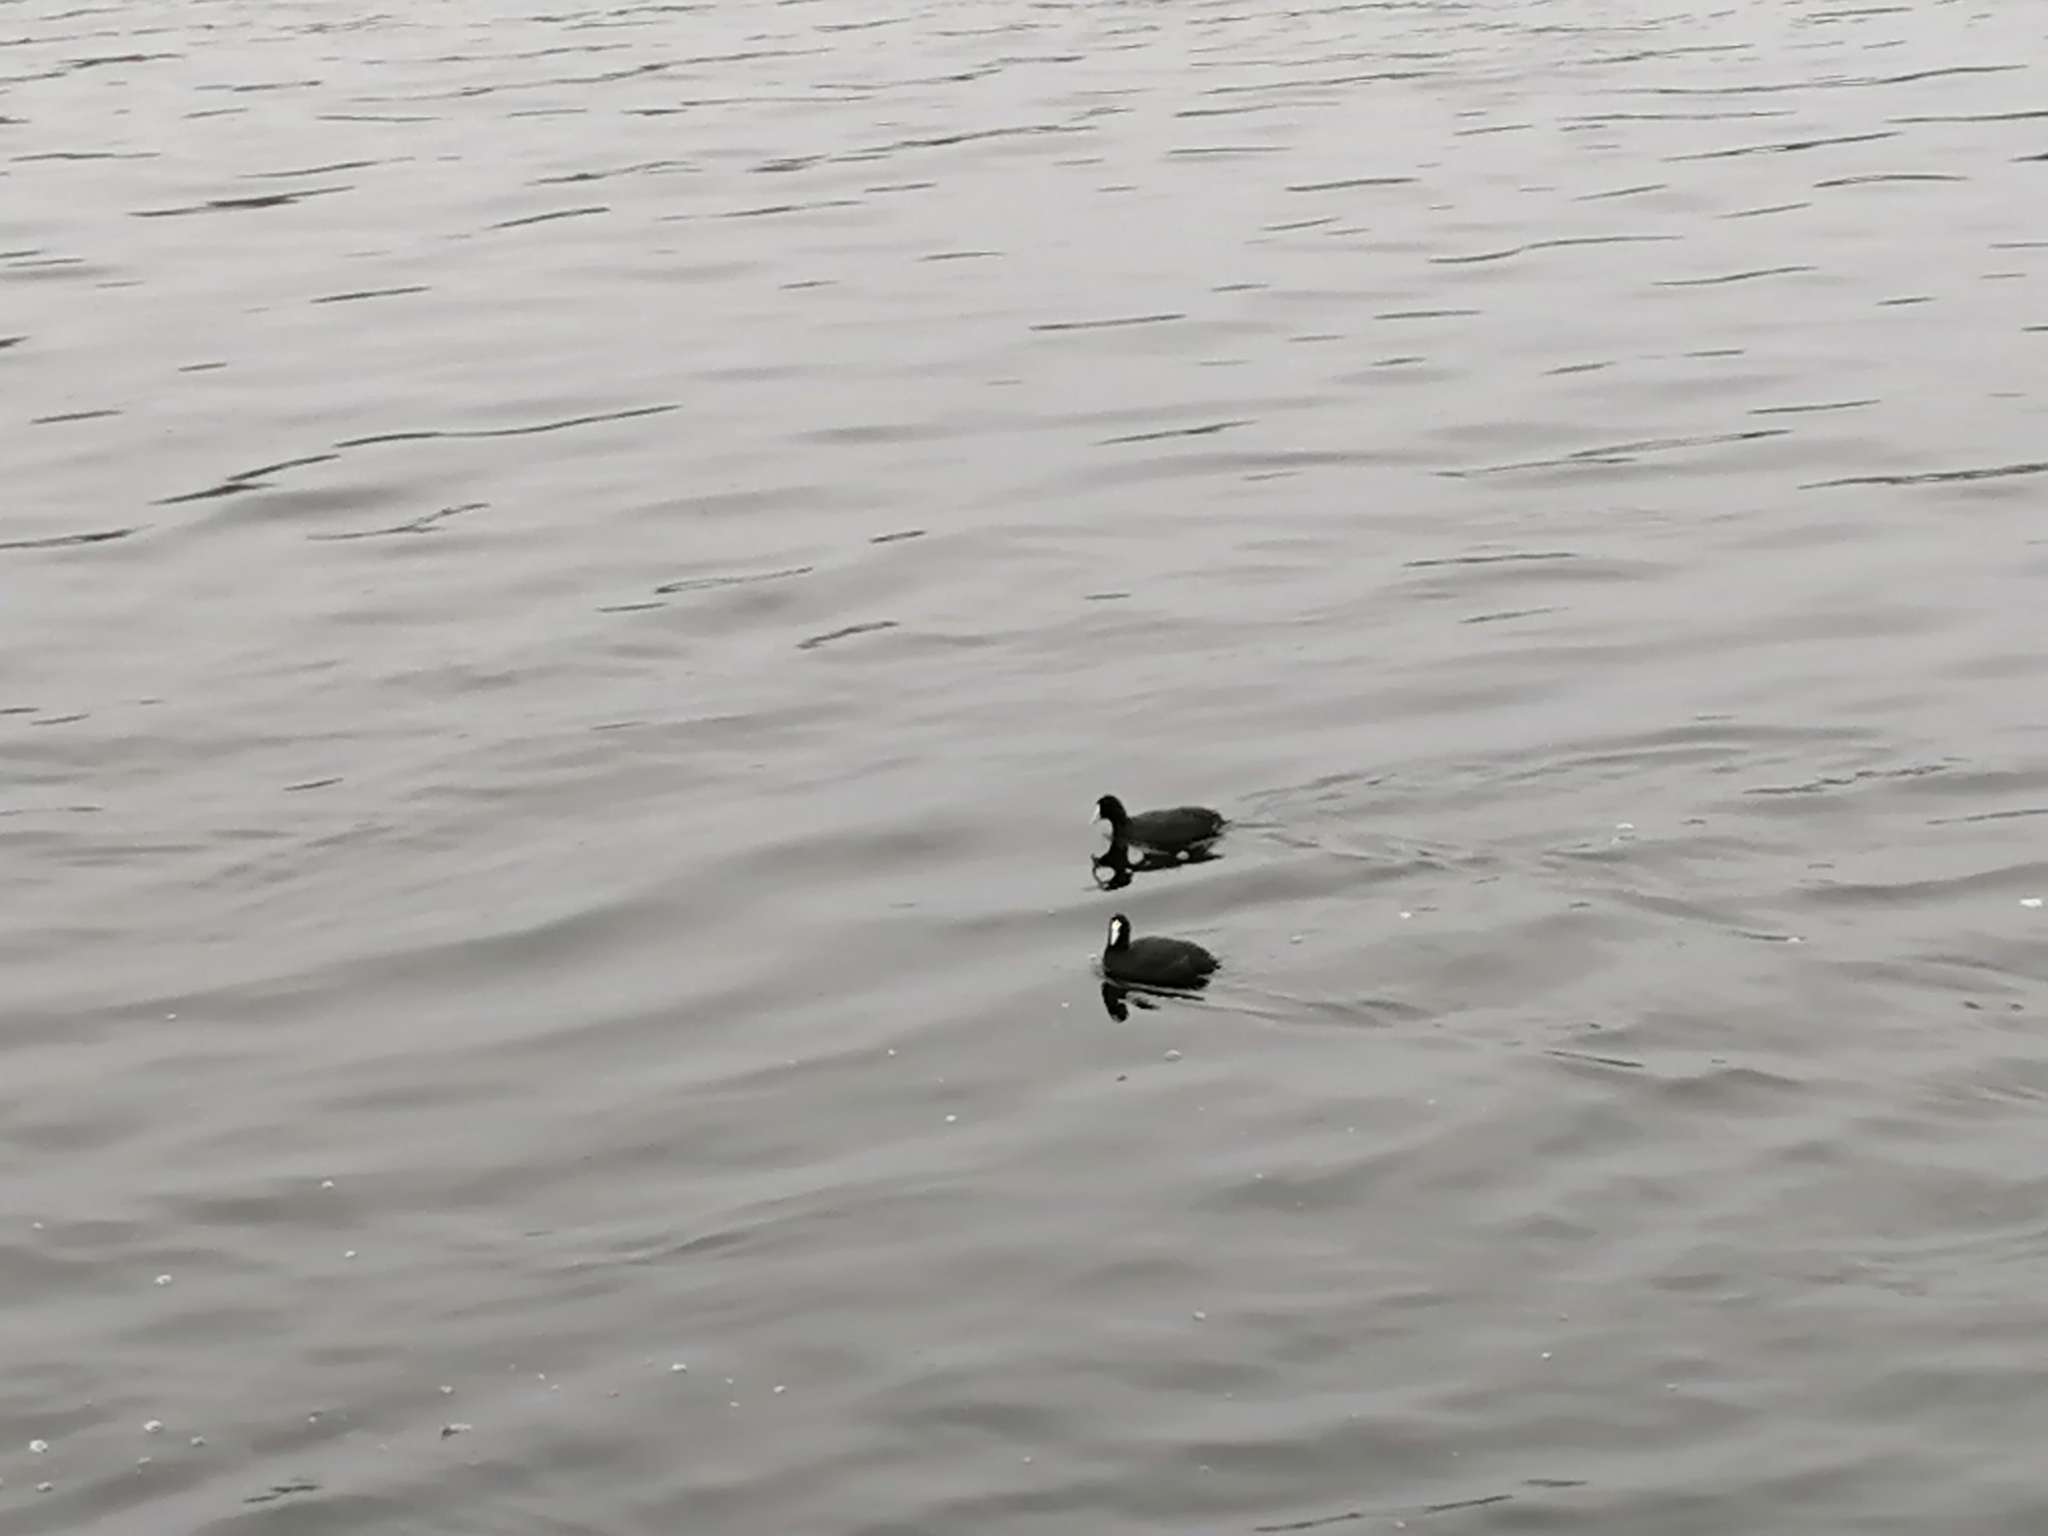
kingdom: Animalia
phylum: Chordata
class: Aves
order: Gruiformes
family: Rallidae
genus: Fulica
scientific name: Fulica atra
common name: Eurasian coot
